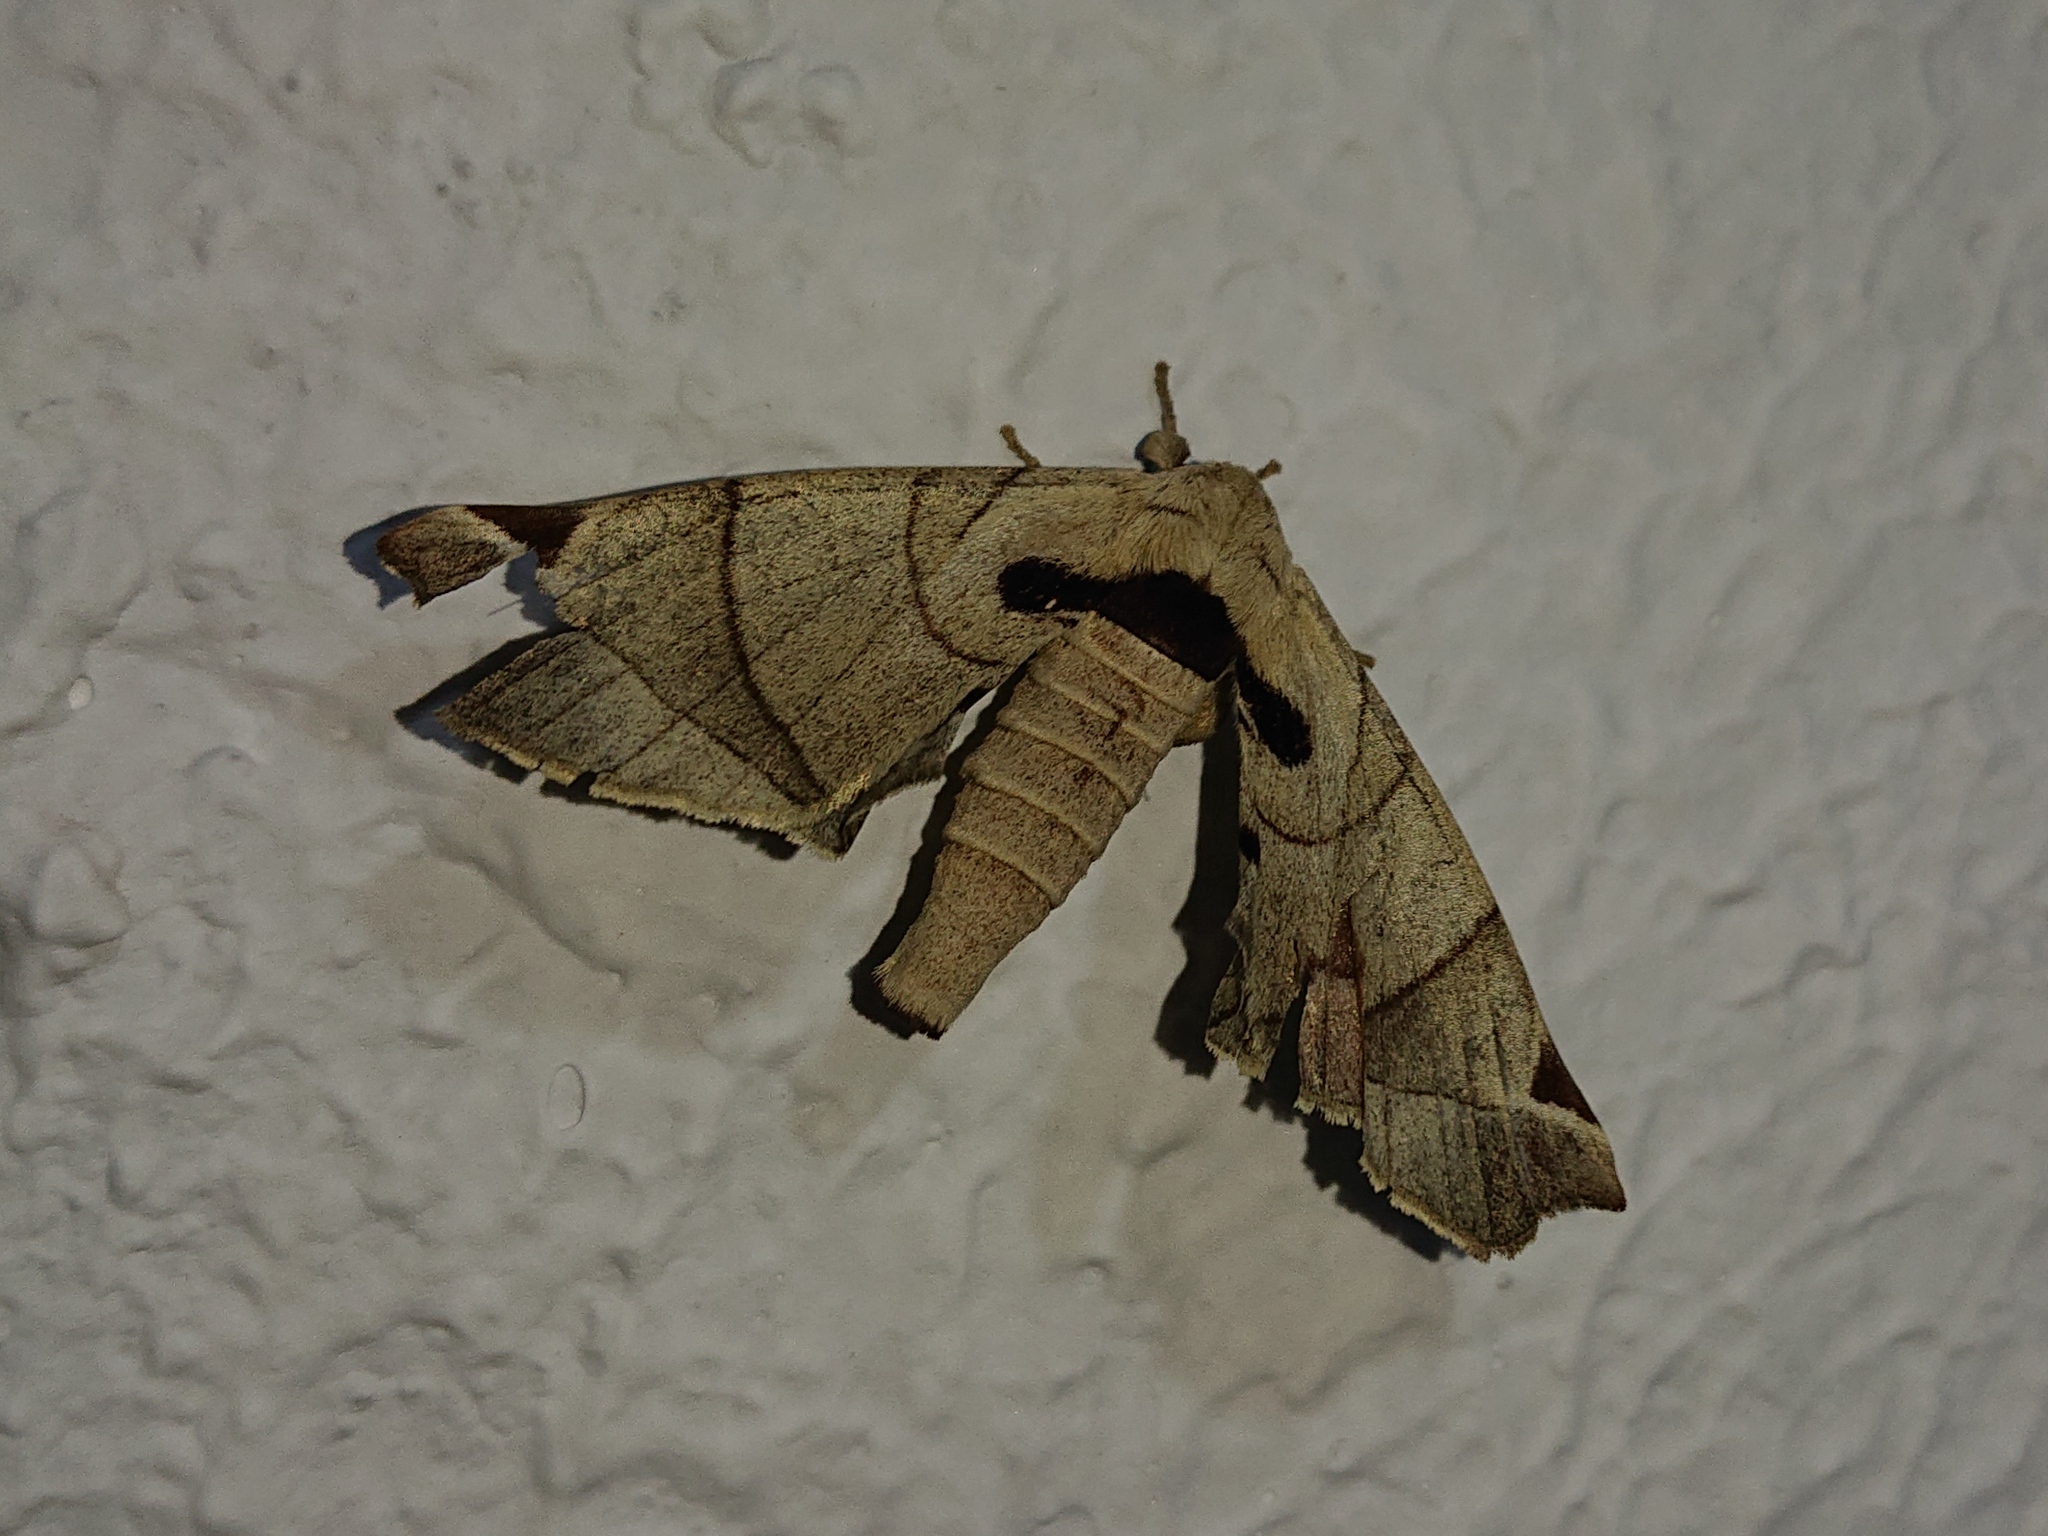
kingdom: Animalia
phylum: Arthropoda
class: Insecta
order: Lepidoptera
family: Apatelodidae
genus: Hygrochroa
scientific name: Hygrochroa Apatelodes pandara
